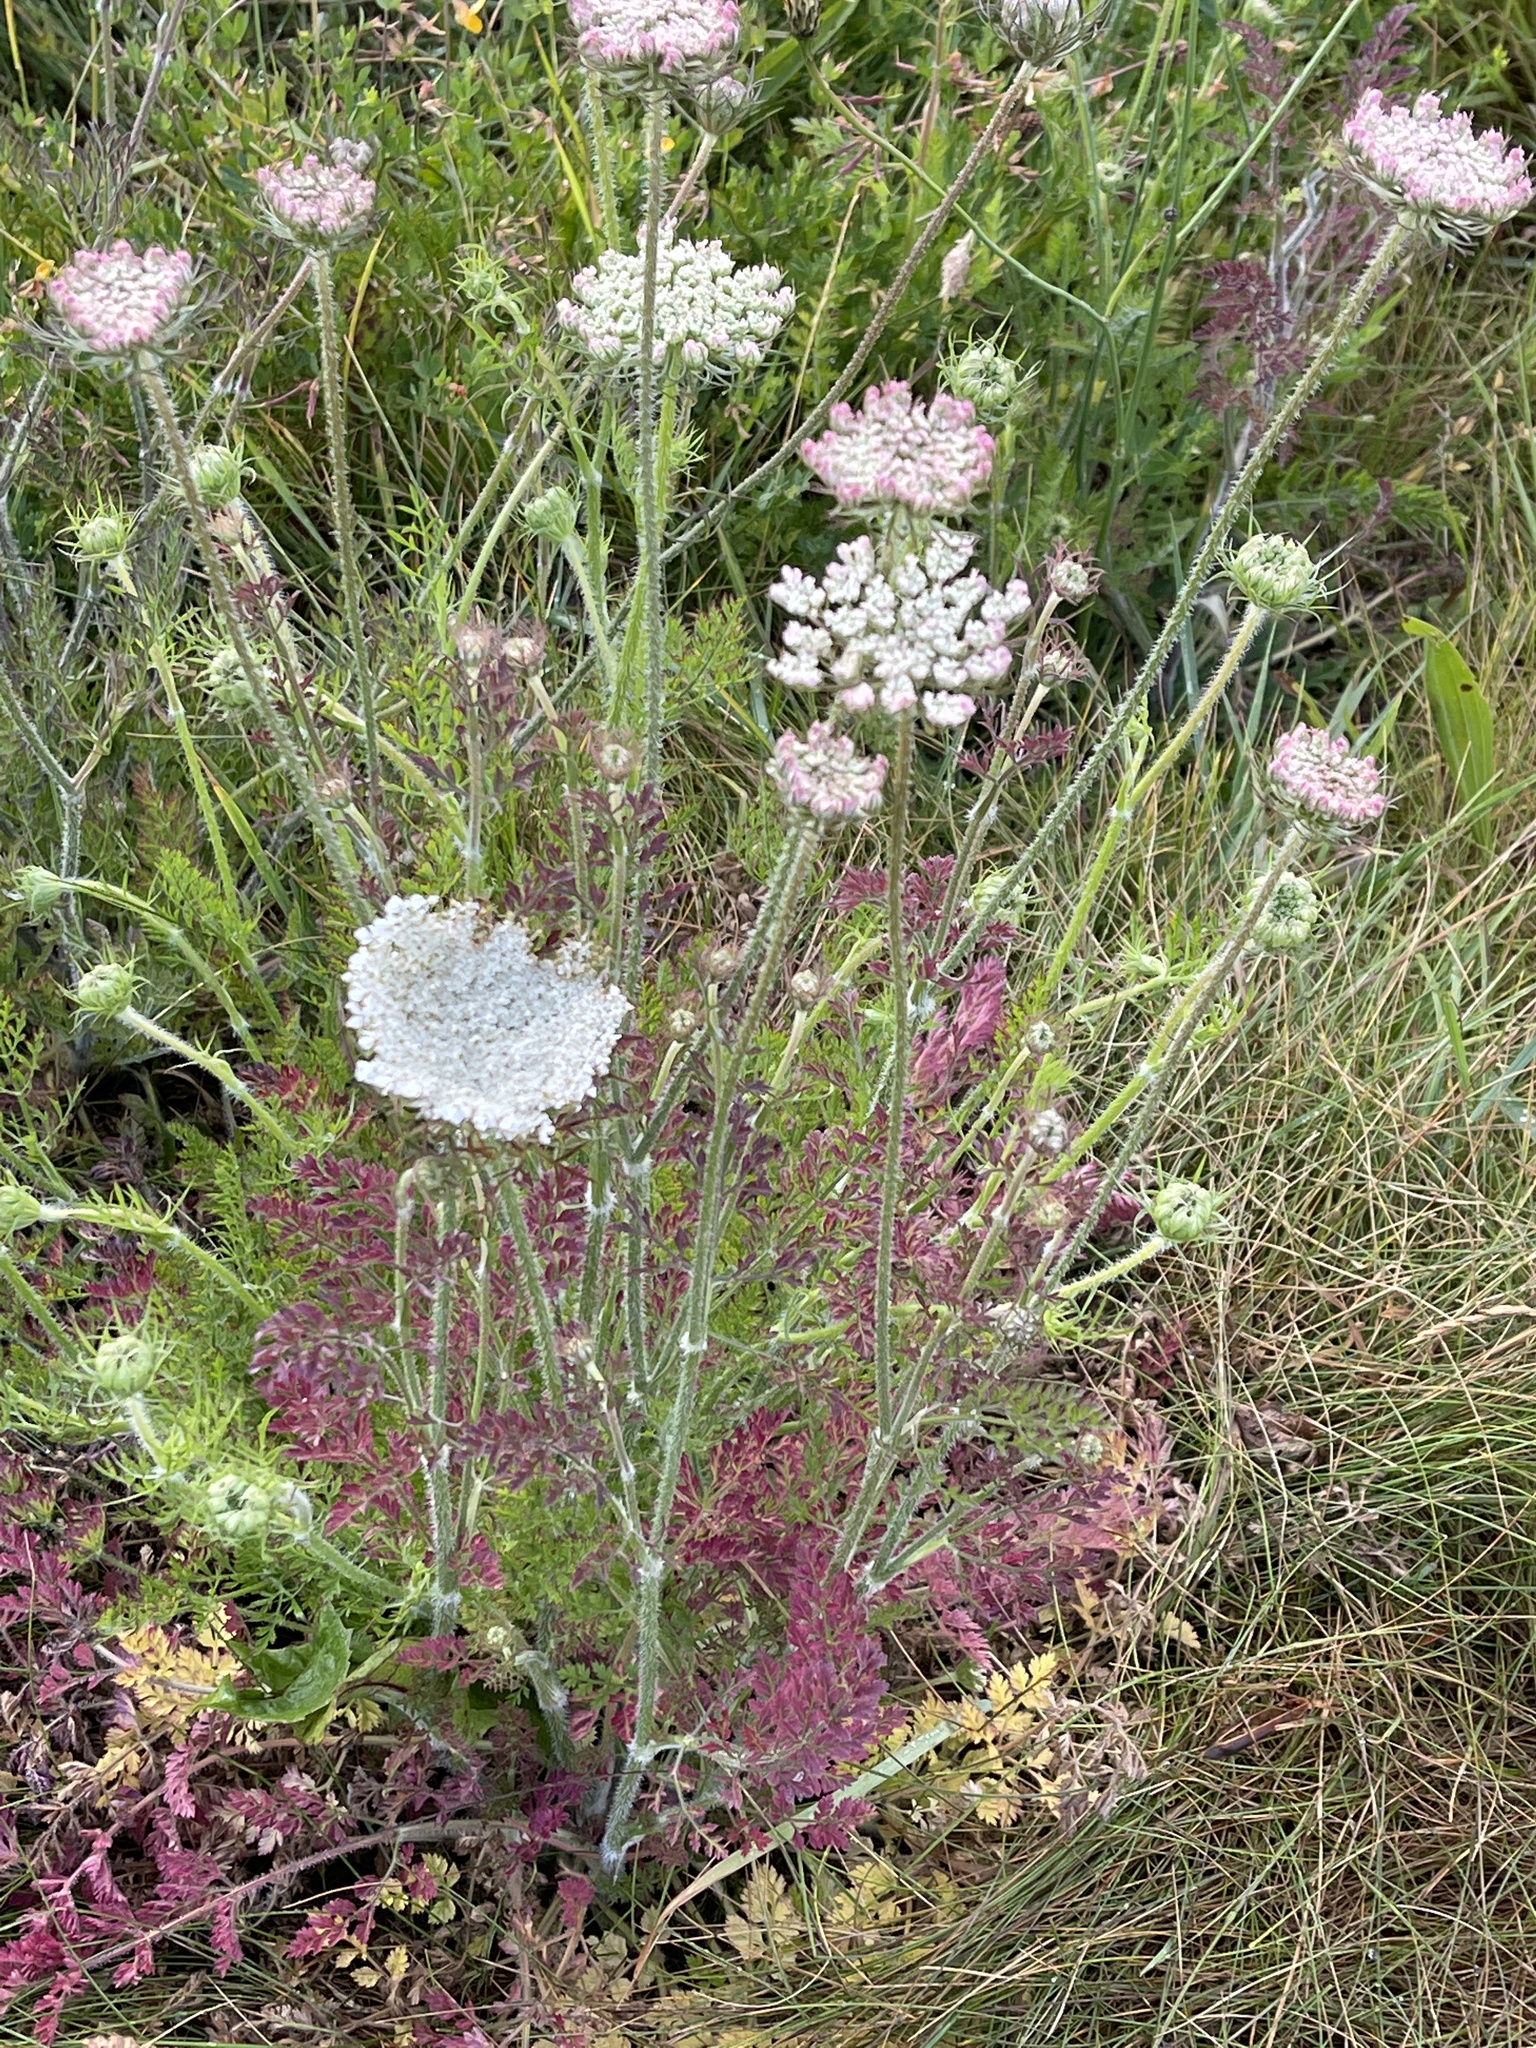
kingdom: Plantae
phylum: Tracheophyta
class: Magnoliopsida
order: Apiales
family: Apiaceae
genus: Daucus
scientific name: Daucus carota
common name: Wild carrot
